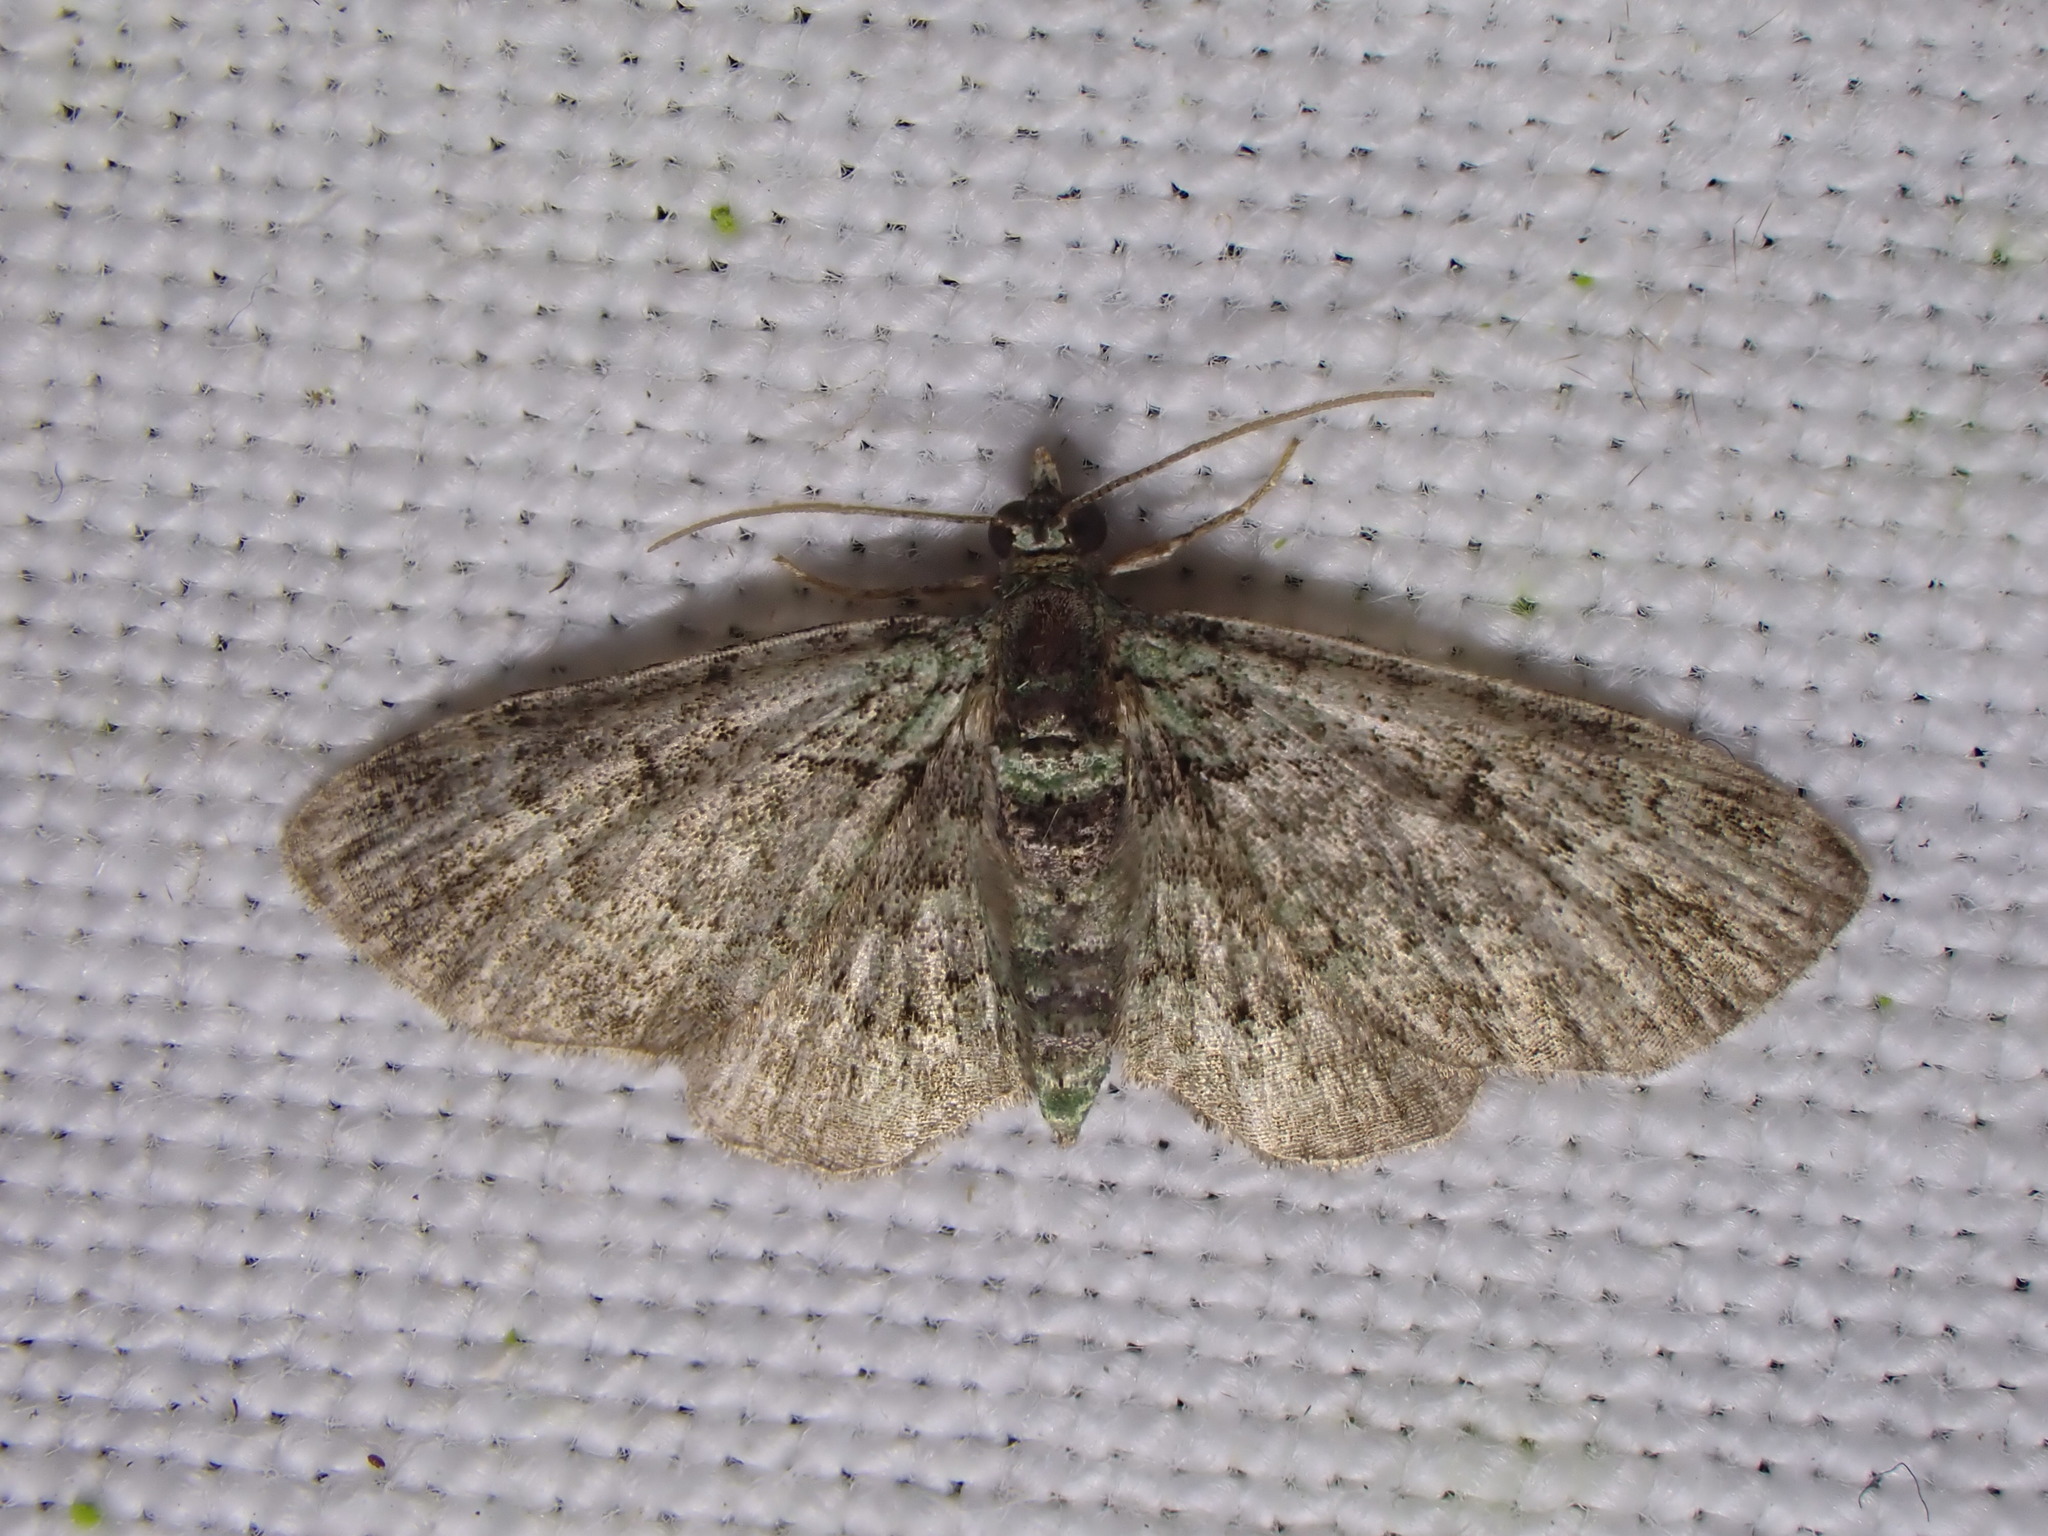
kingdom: Animalia
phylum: Arthropoda
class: Insecta
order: Lepidoptera
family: Geometridae
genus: Pasiphila
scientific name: Pasiphila rectangulata
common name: Green pug
